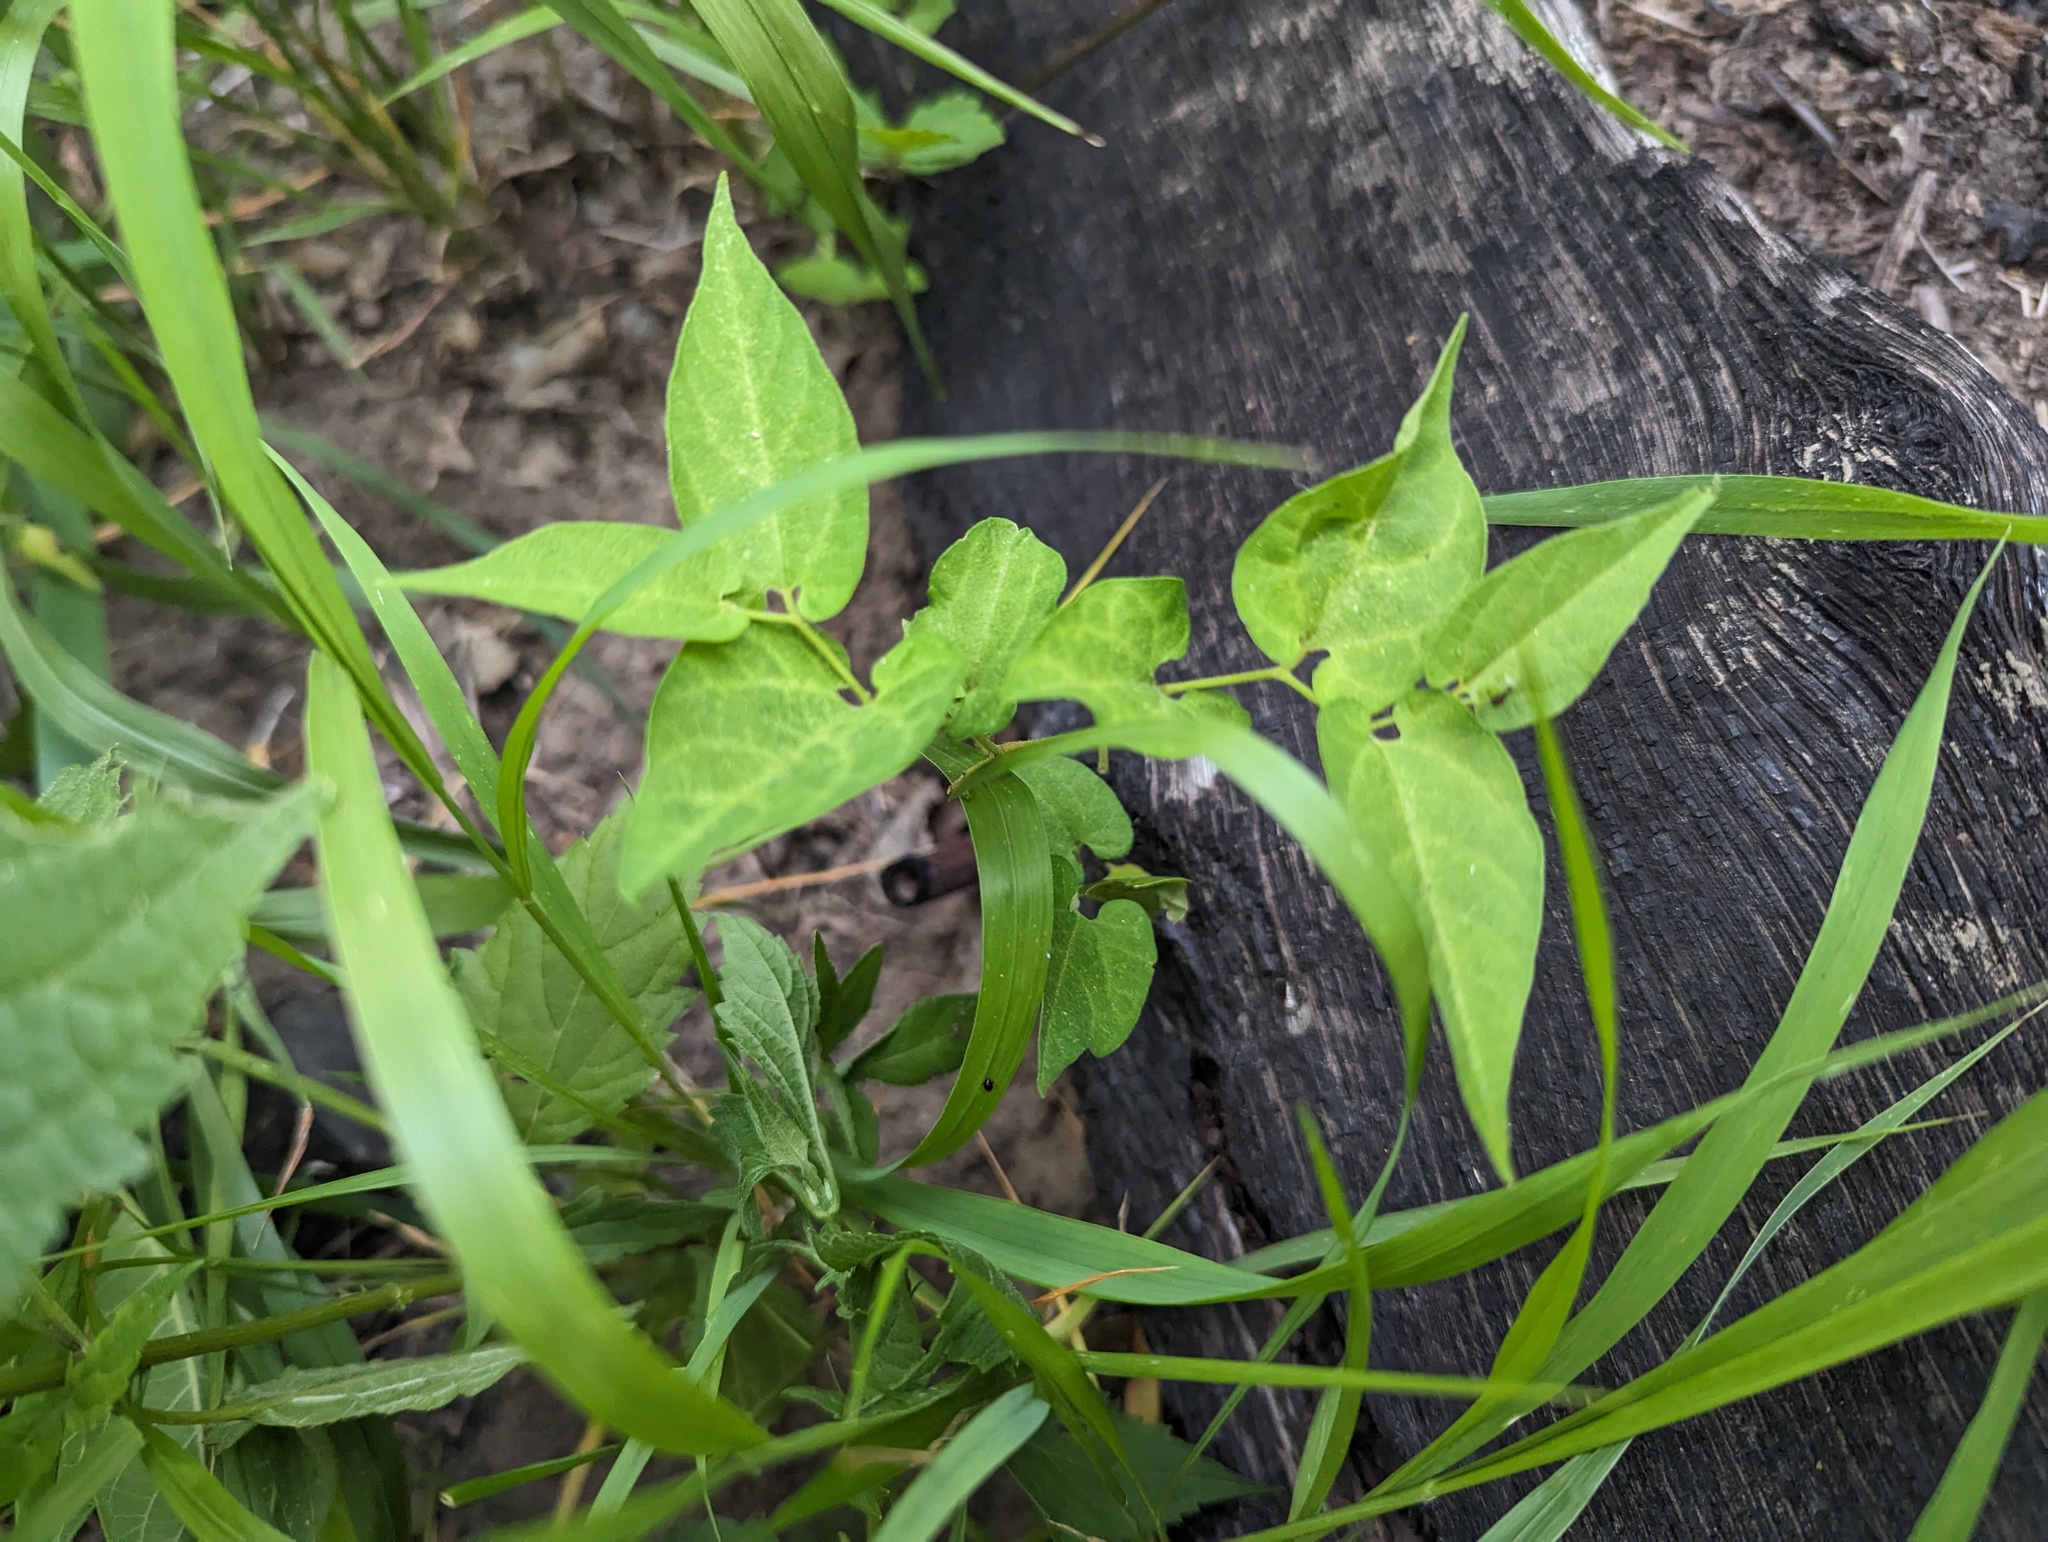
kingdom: Plantae
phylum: Tracheophyta
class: Magnoliopsida
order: Piperales
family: Aristolochiaceae
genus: Endodeca
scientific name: Endodeca serpentaria
